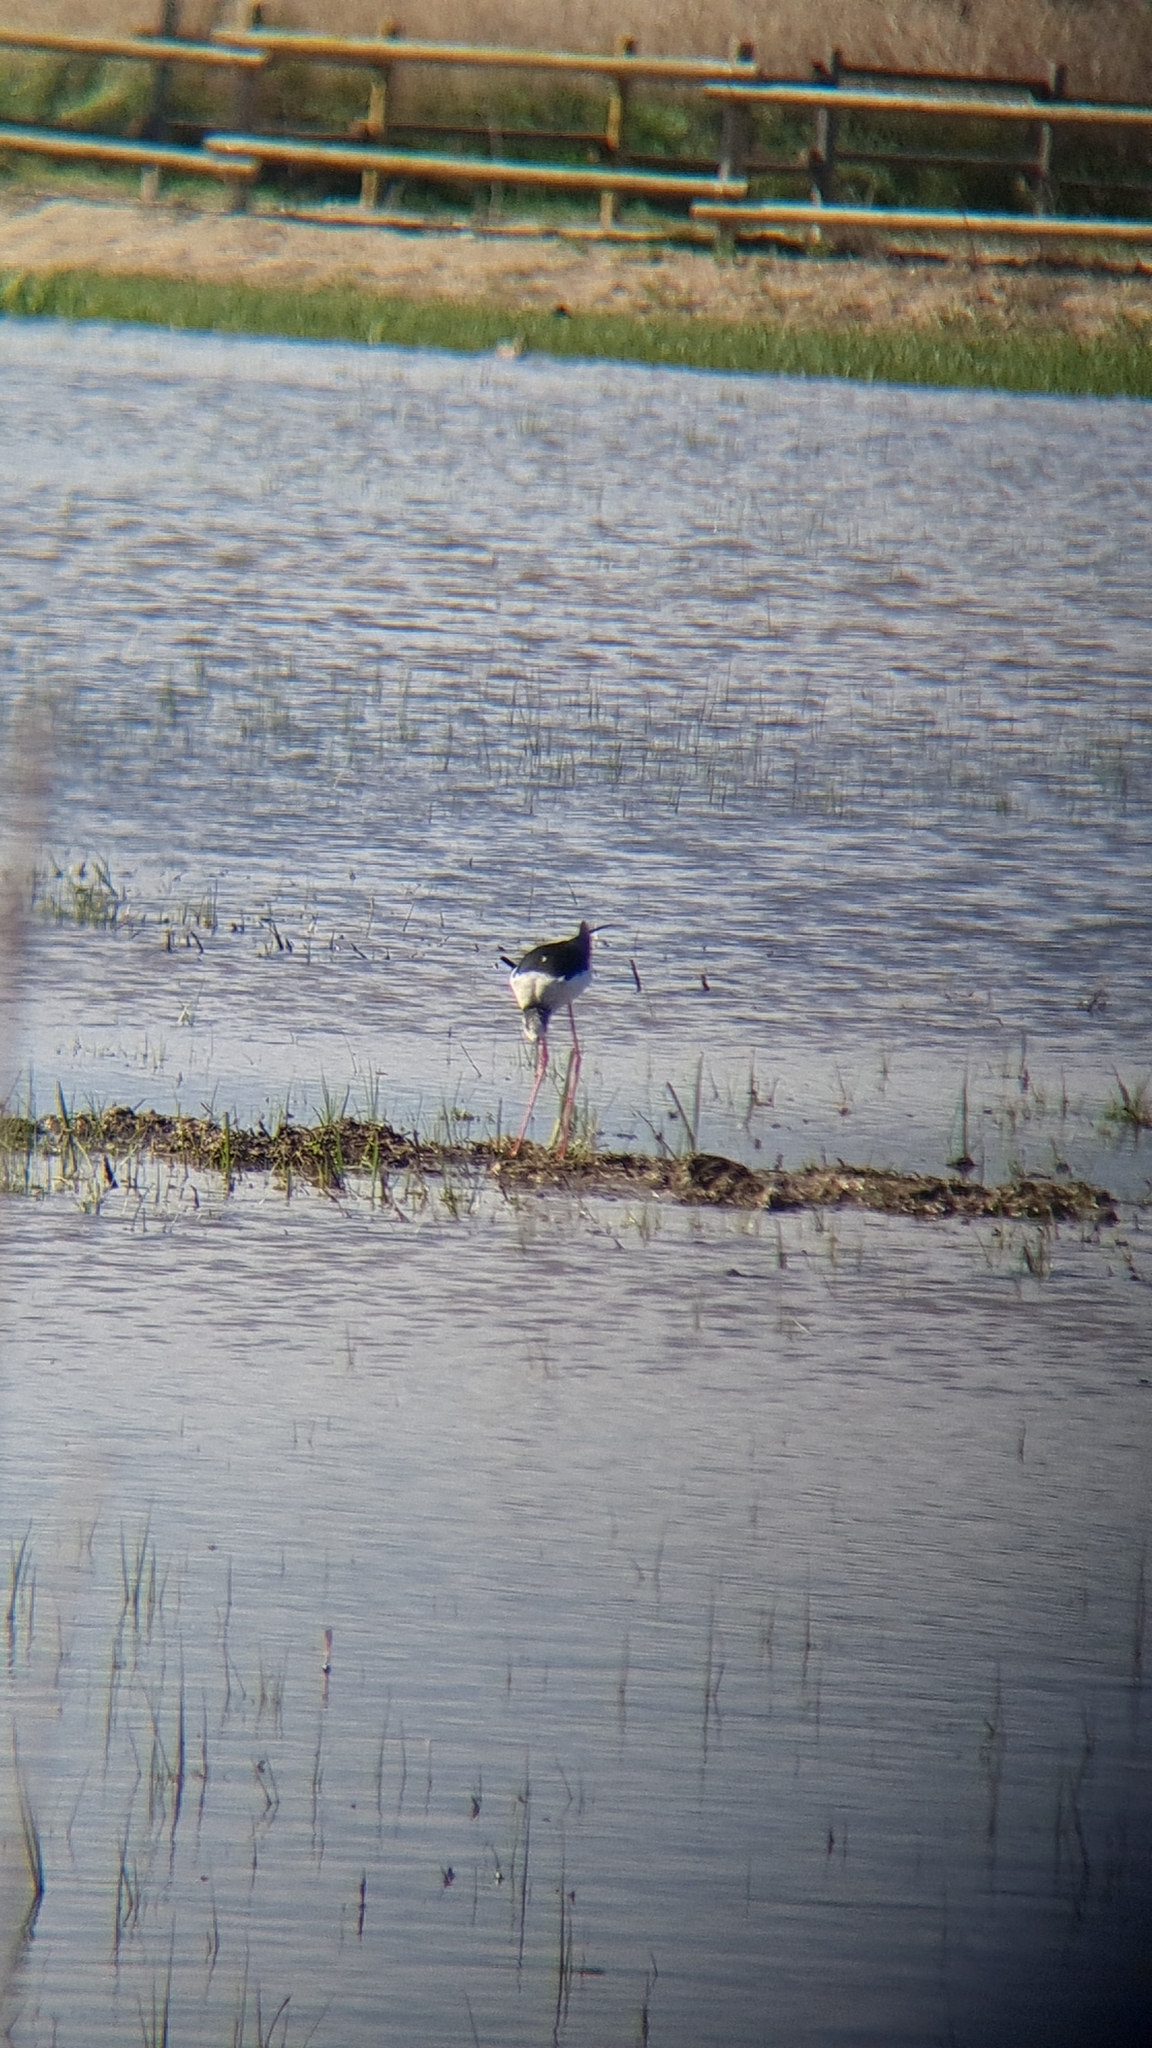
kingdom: Animalia
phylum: Chordata
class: Aves
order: Charadriiformes
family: Recurvirostridae
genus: Himantopus
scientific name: Himantopus himantopus
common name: Black-winged stilt
